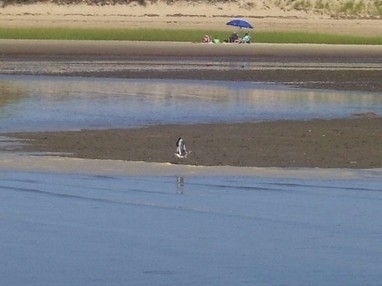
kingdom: Animalia
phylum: Chordata
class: Aves
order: Charadriiformes
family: Scolopacidae
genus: Tringa
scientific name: Tringa semipalmata
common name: Willet
